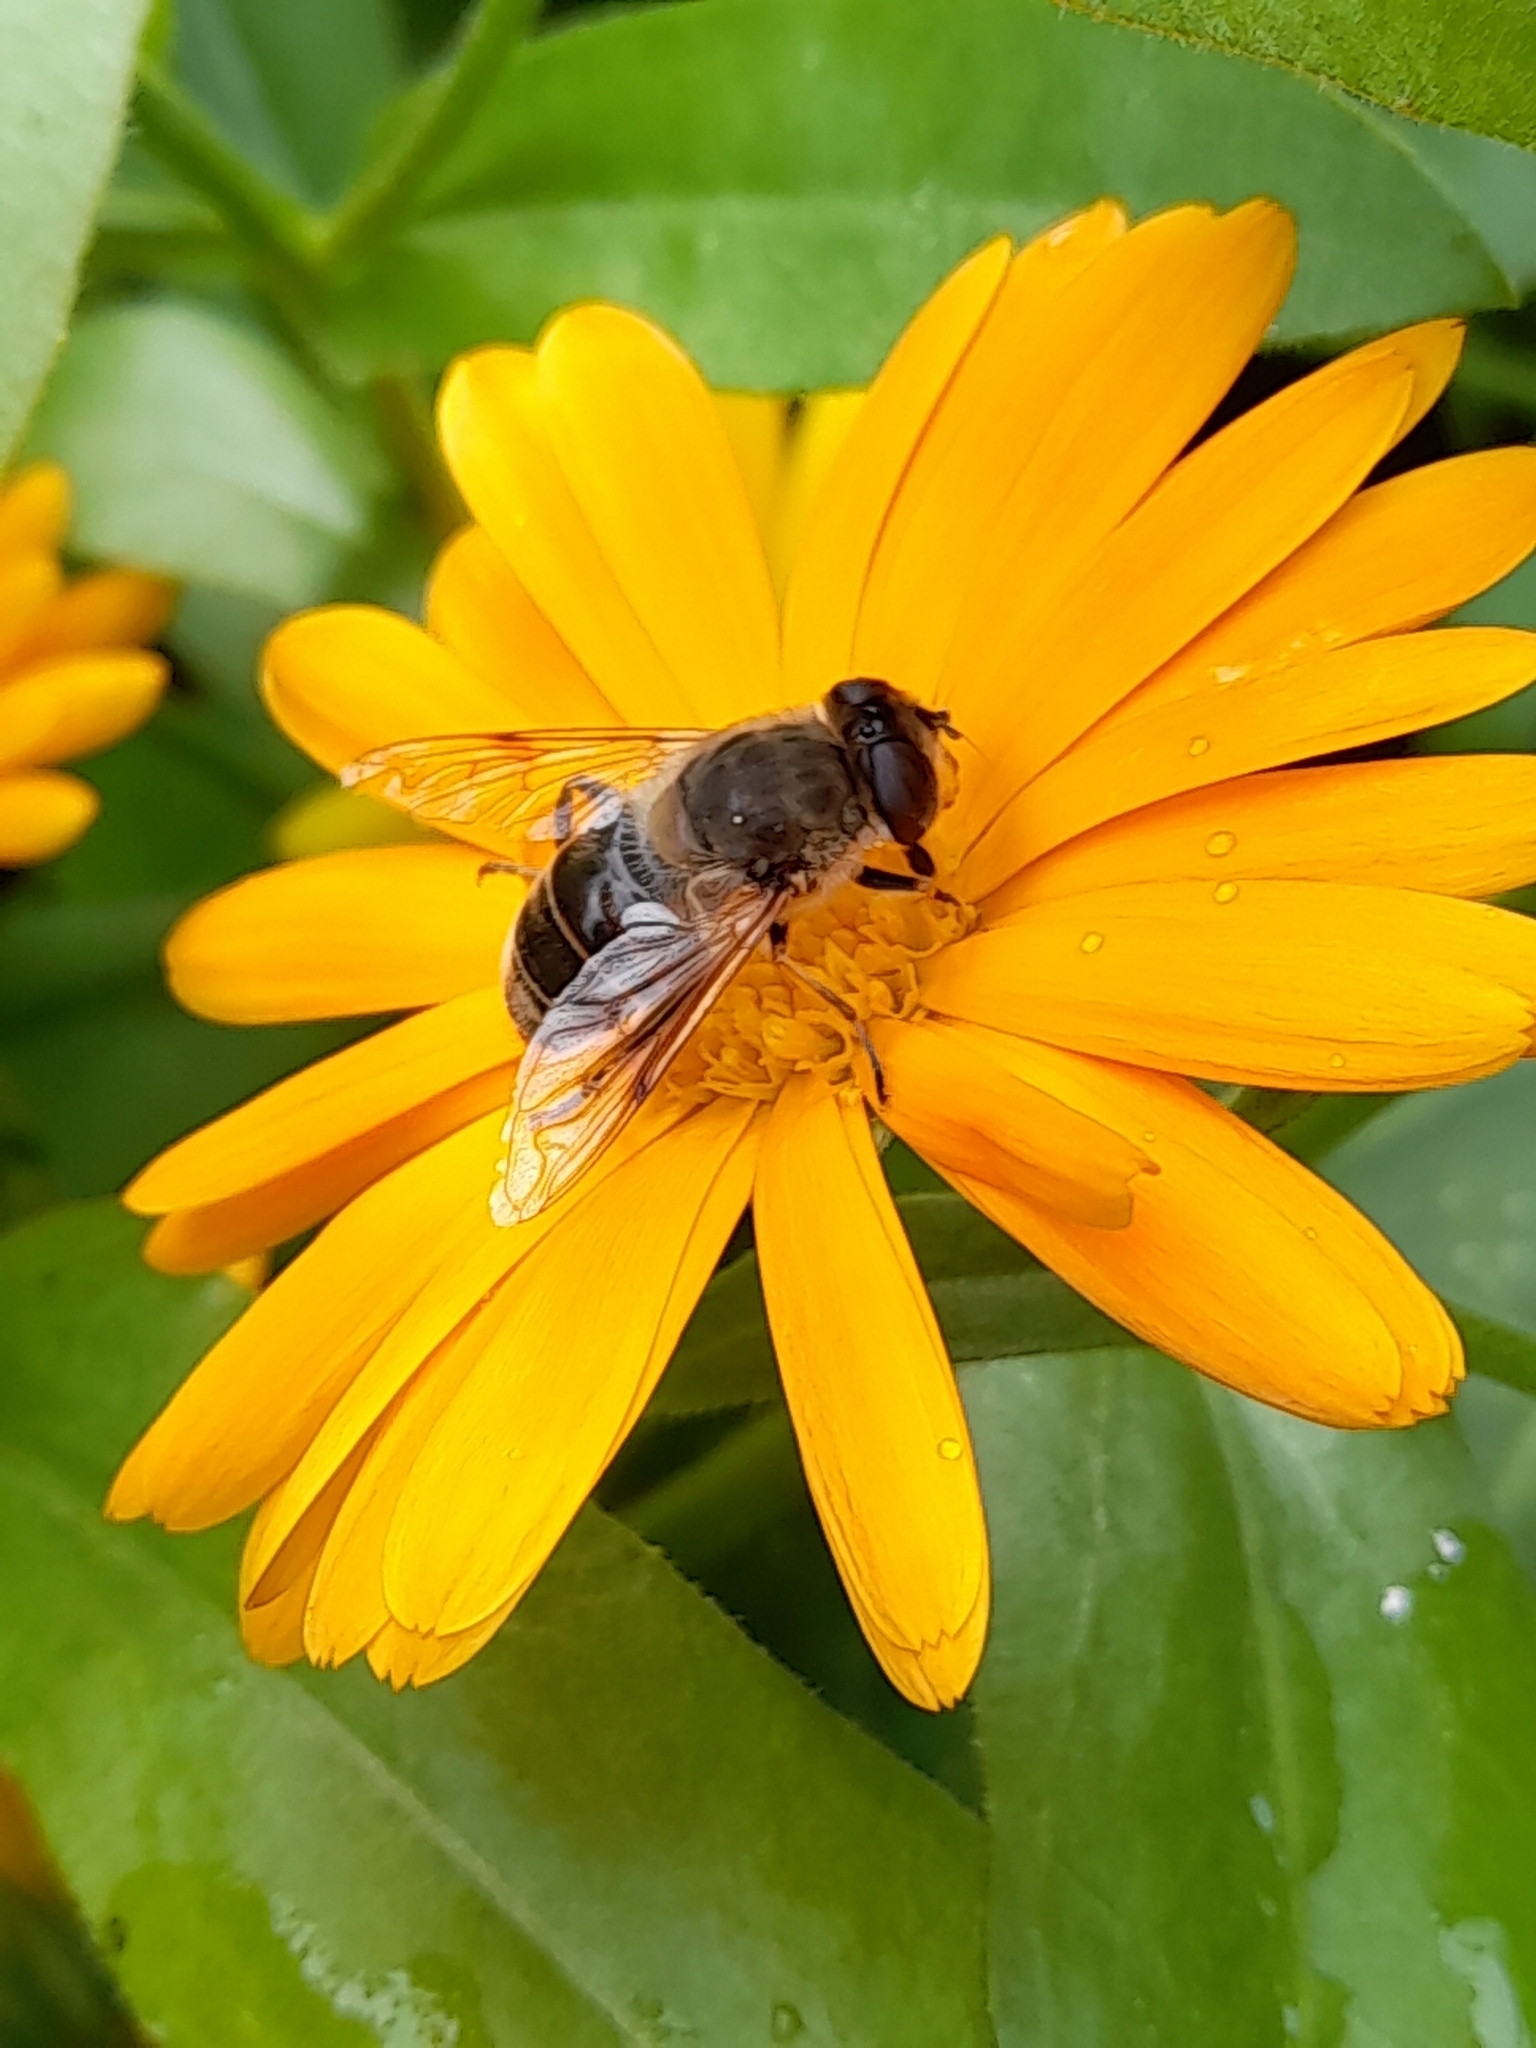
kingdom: Animalia
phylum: Arthropoda
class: Insecta
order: Diptera
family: Syrphidae
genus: Eristalis
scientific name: Eristalis tenax
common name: Drone fly
